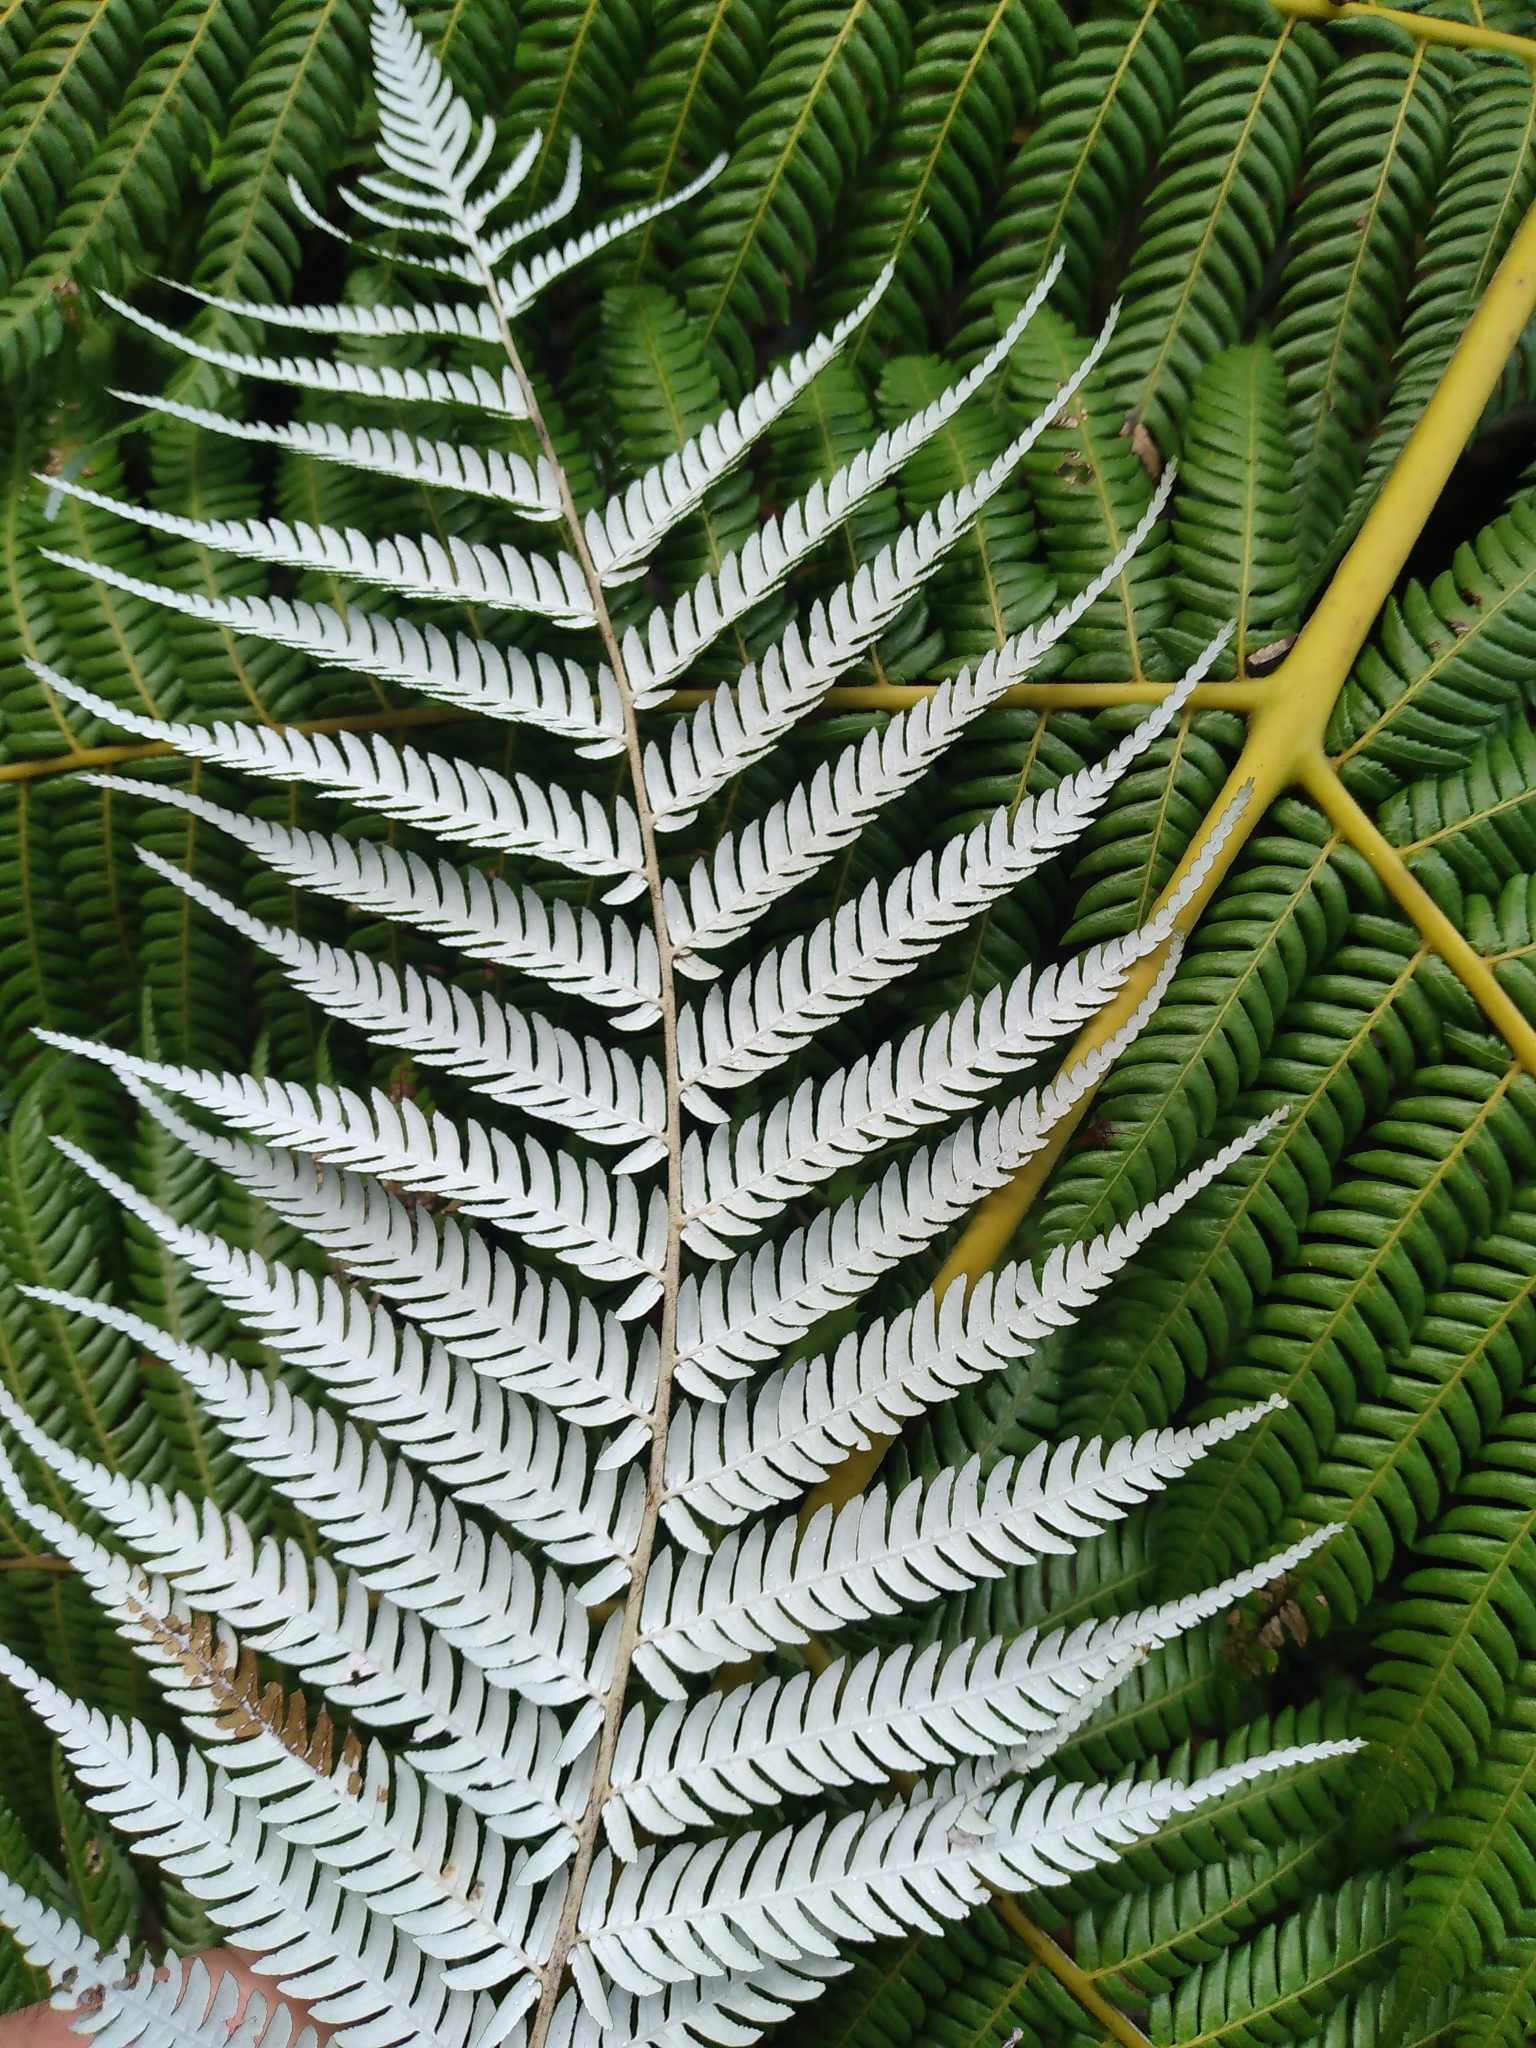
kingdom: Plantae
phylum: Tracheophyta
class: Polypodiopsida
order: Cyatheales
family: Cyatheaceae
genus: Alsophila
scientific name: Alsophila dealbata
